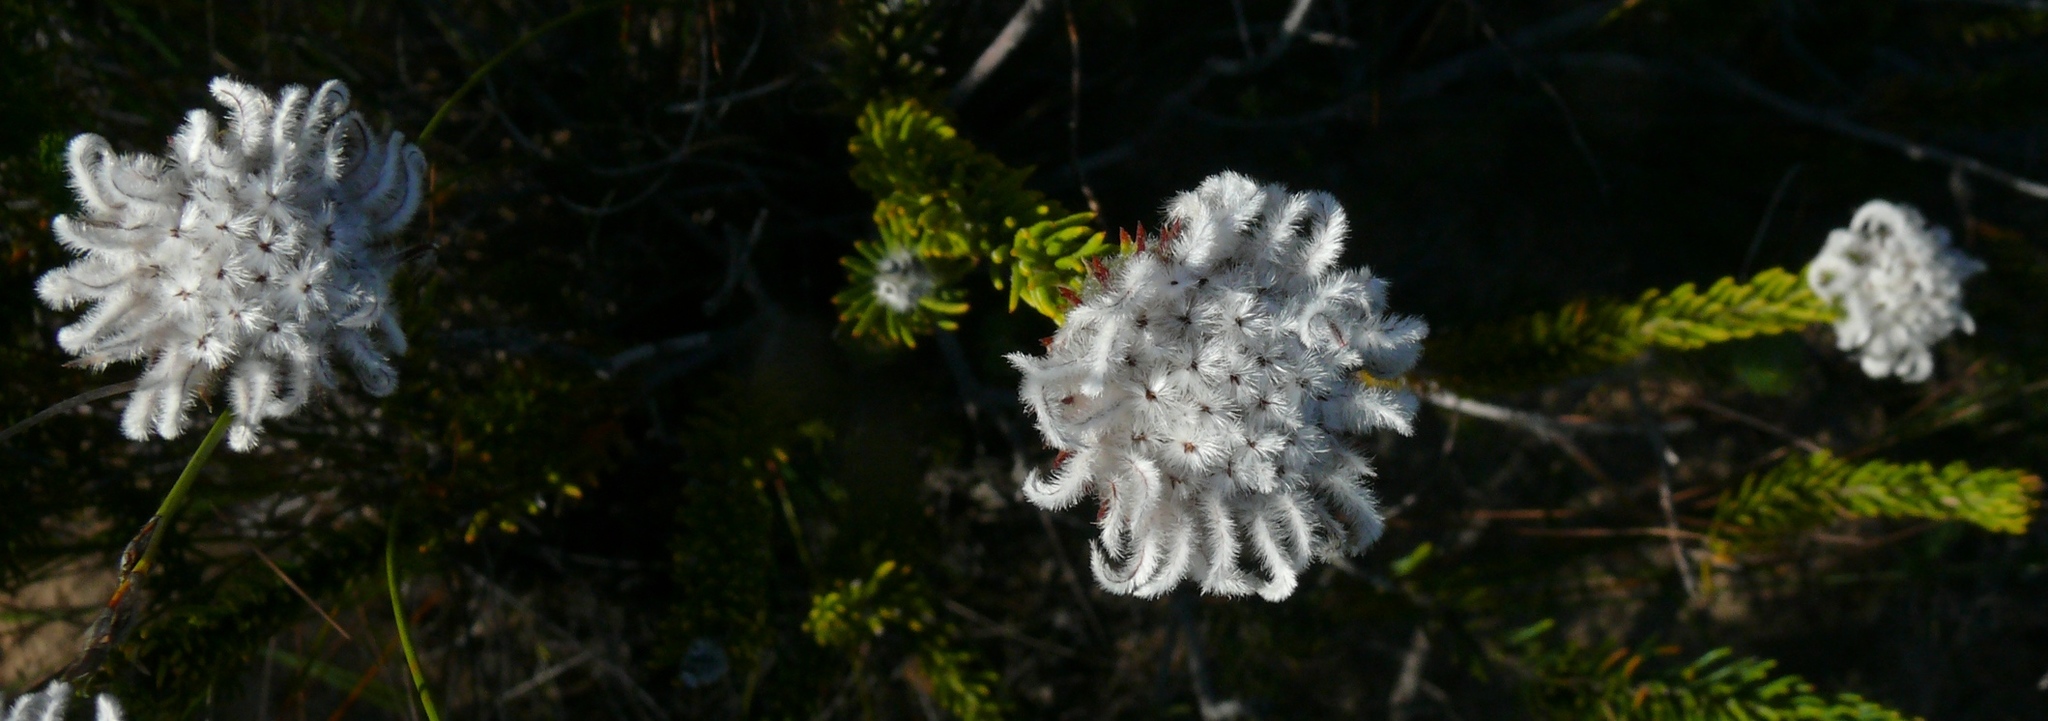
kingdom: Plantae
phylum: Tracheophyta
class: Magnoliopsida
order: Rosales
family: Rhamnaceae
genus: Phylica
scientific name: Phylica plumigera
